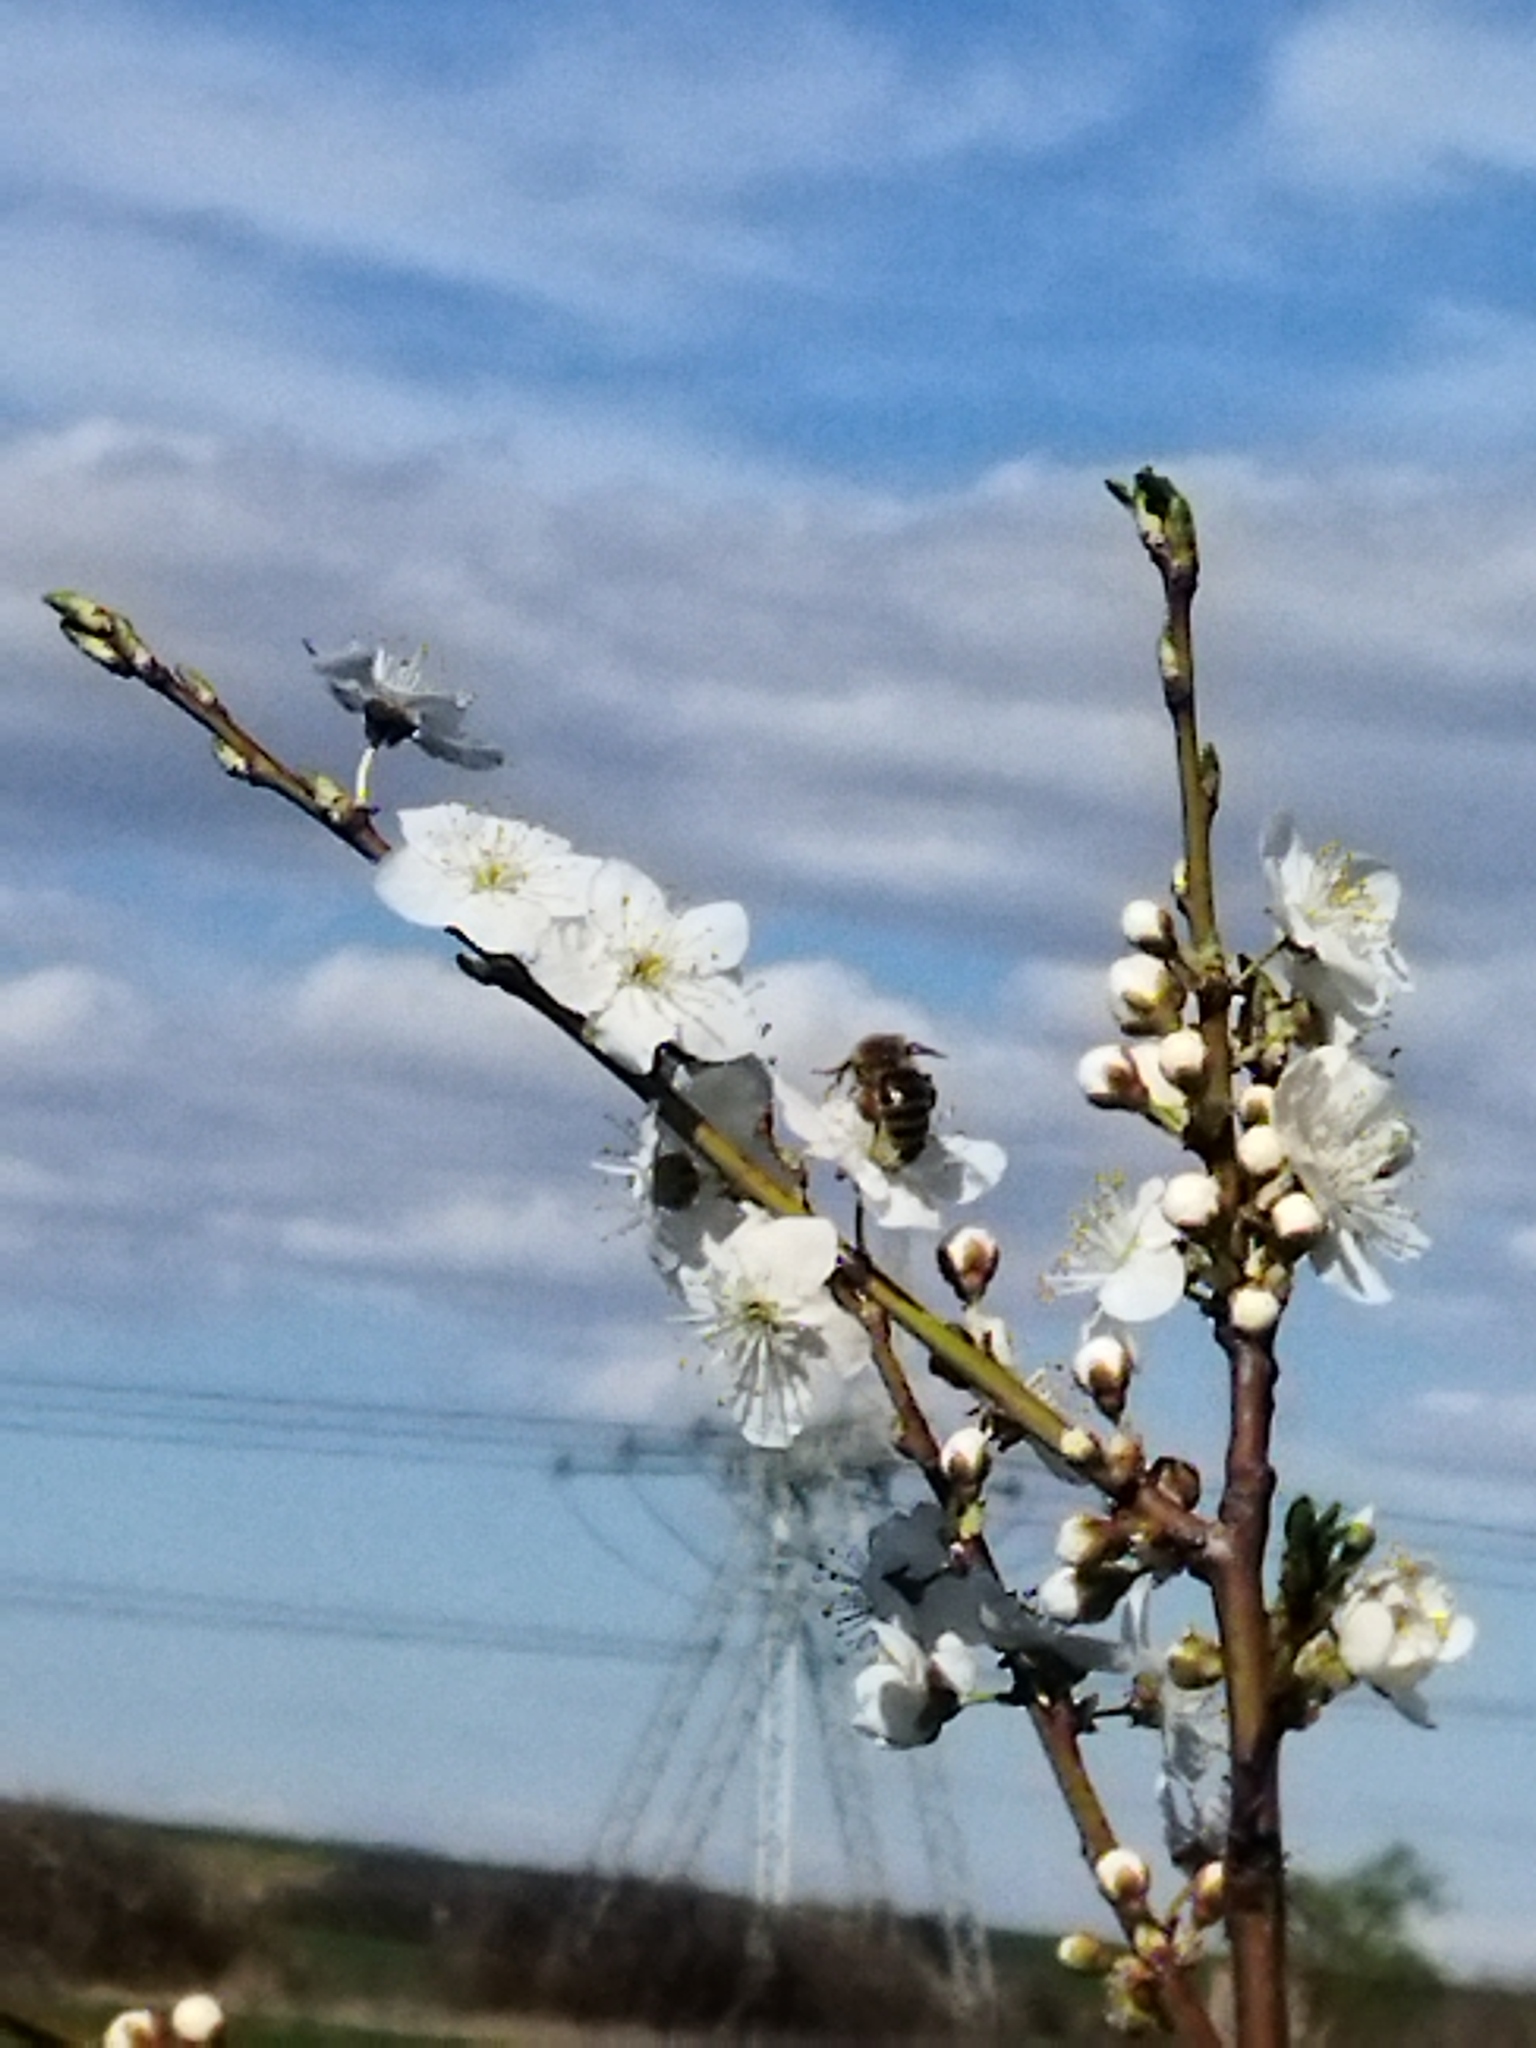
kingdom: Animalia
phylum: Arthropoda
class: Insecta
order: Hymenoptera
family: Apidae
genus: Apis
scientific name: Apis mellifera
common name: Honey bee
